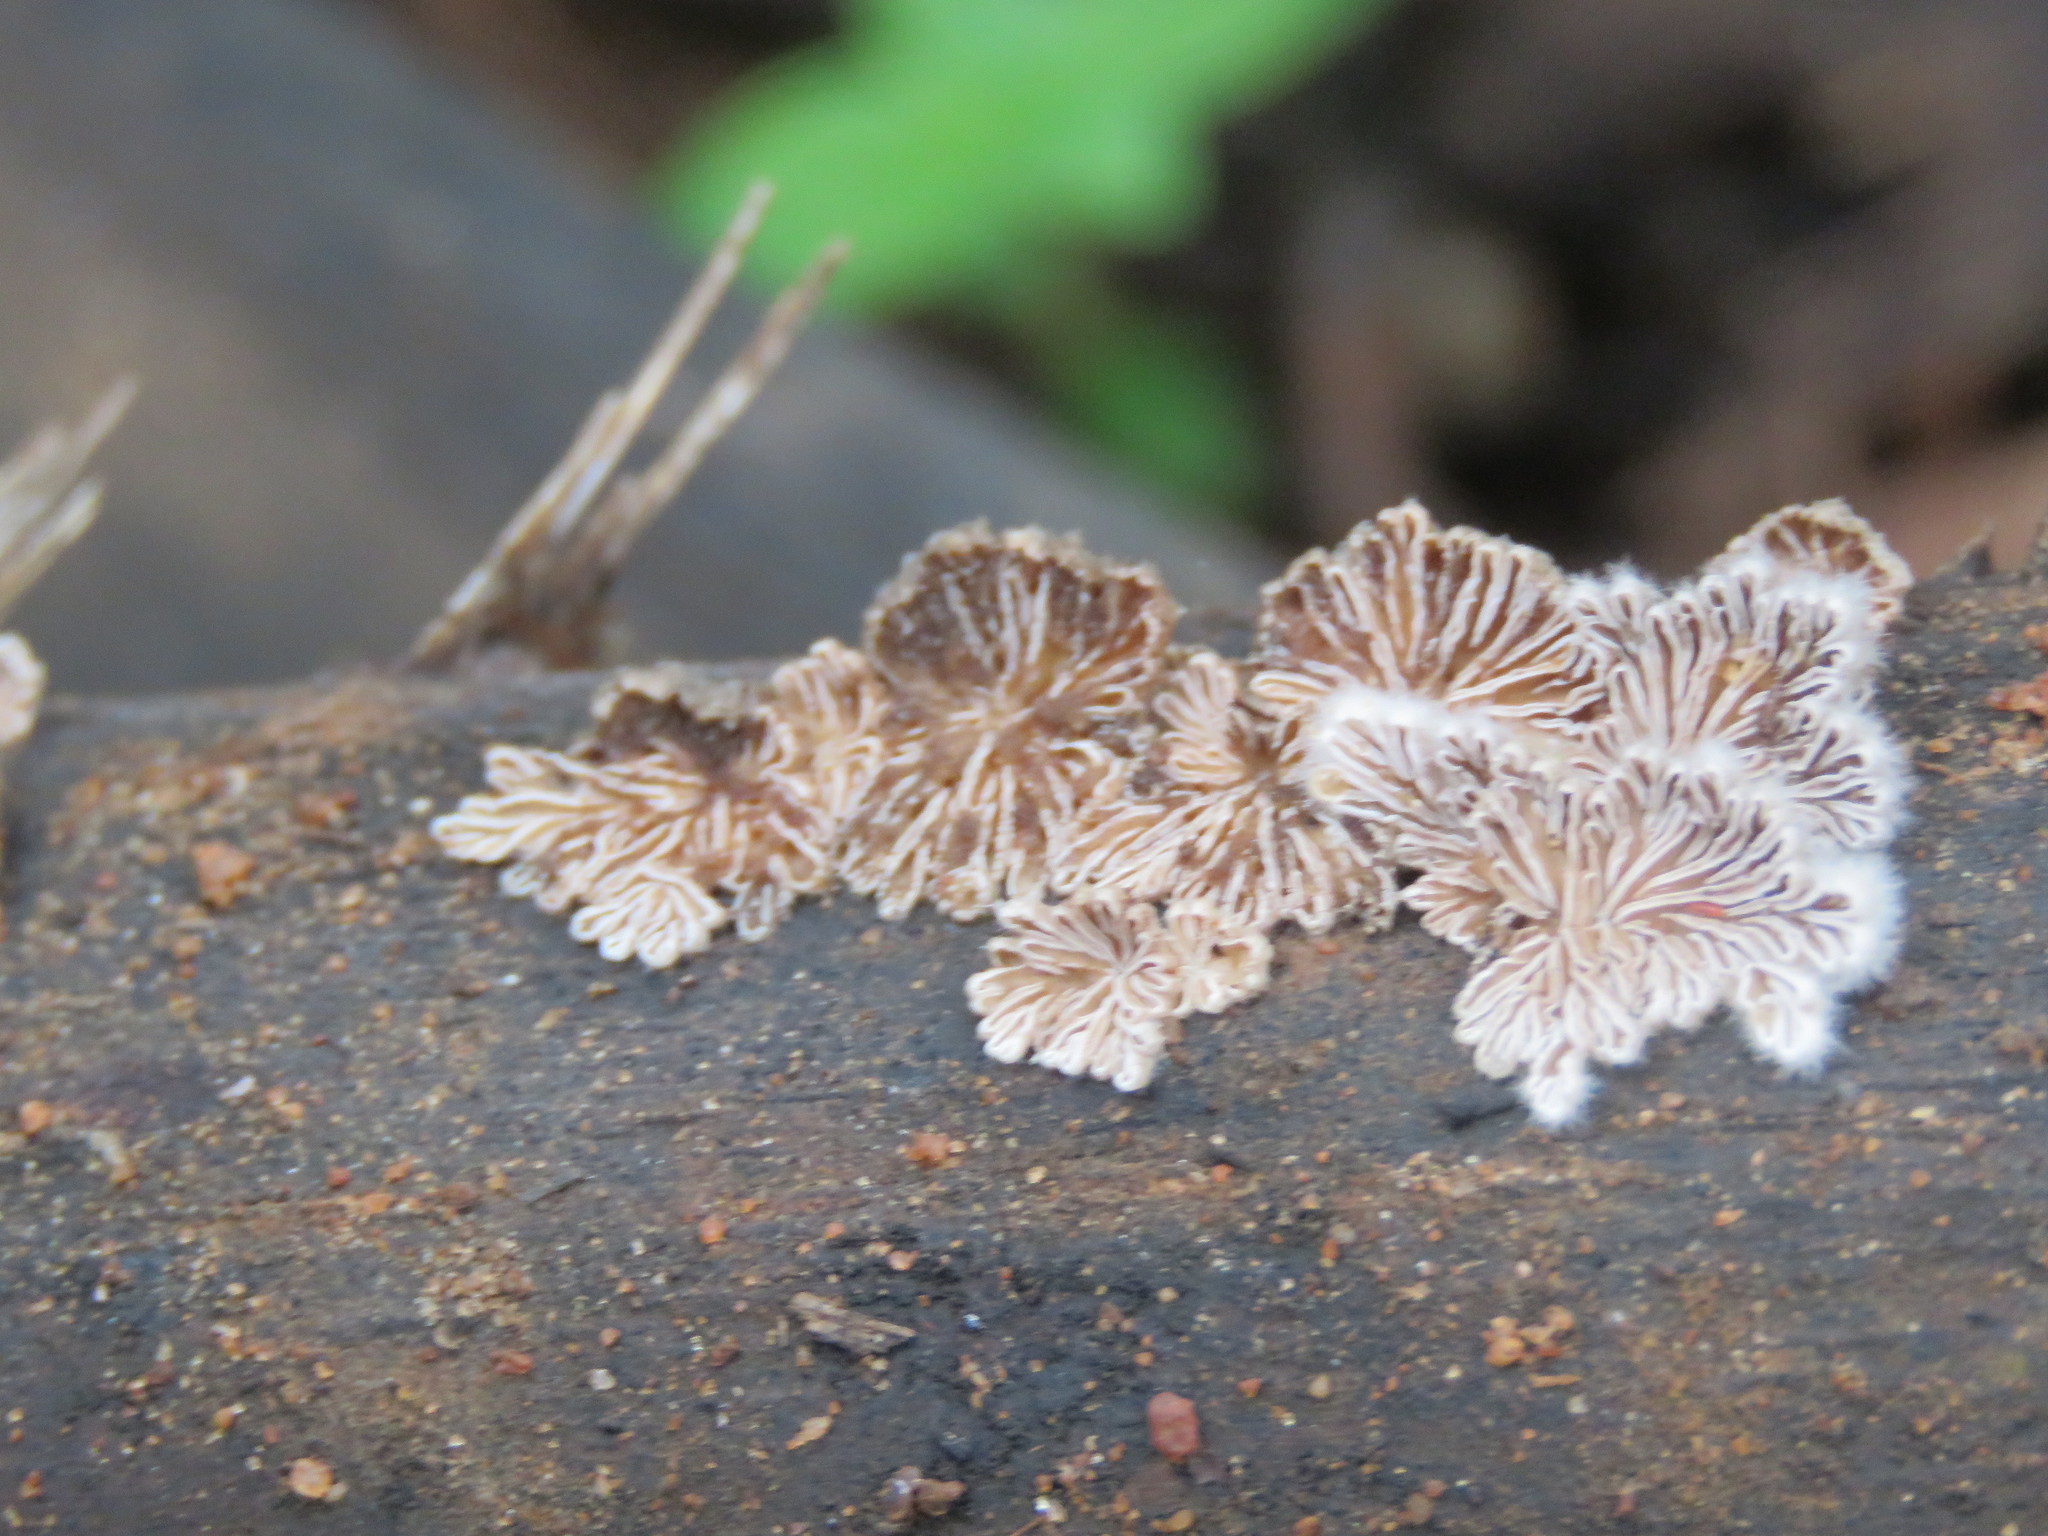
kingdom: Fungi
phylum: Basidiomycota
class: Agaricomycetes
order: Agaricales
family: Schizophyllaceae
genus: Schizophyllum
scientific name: Schizophyllum commune
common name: Common porecrust
